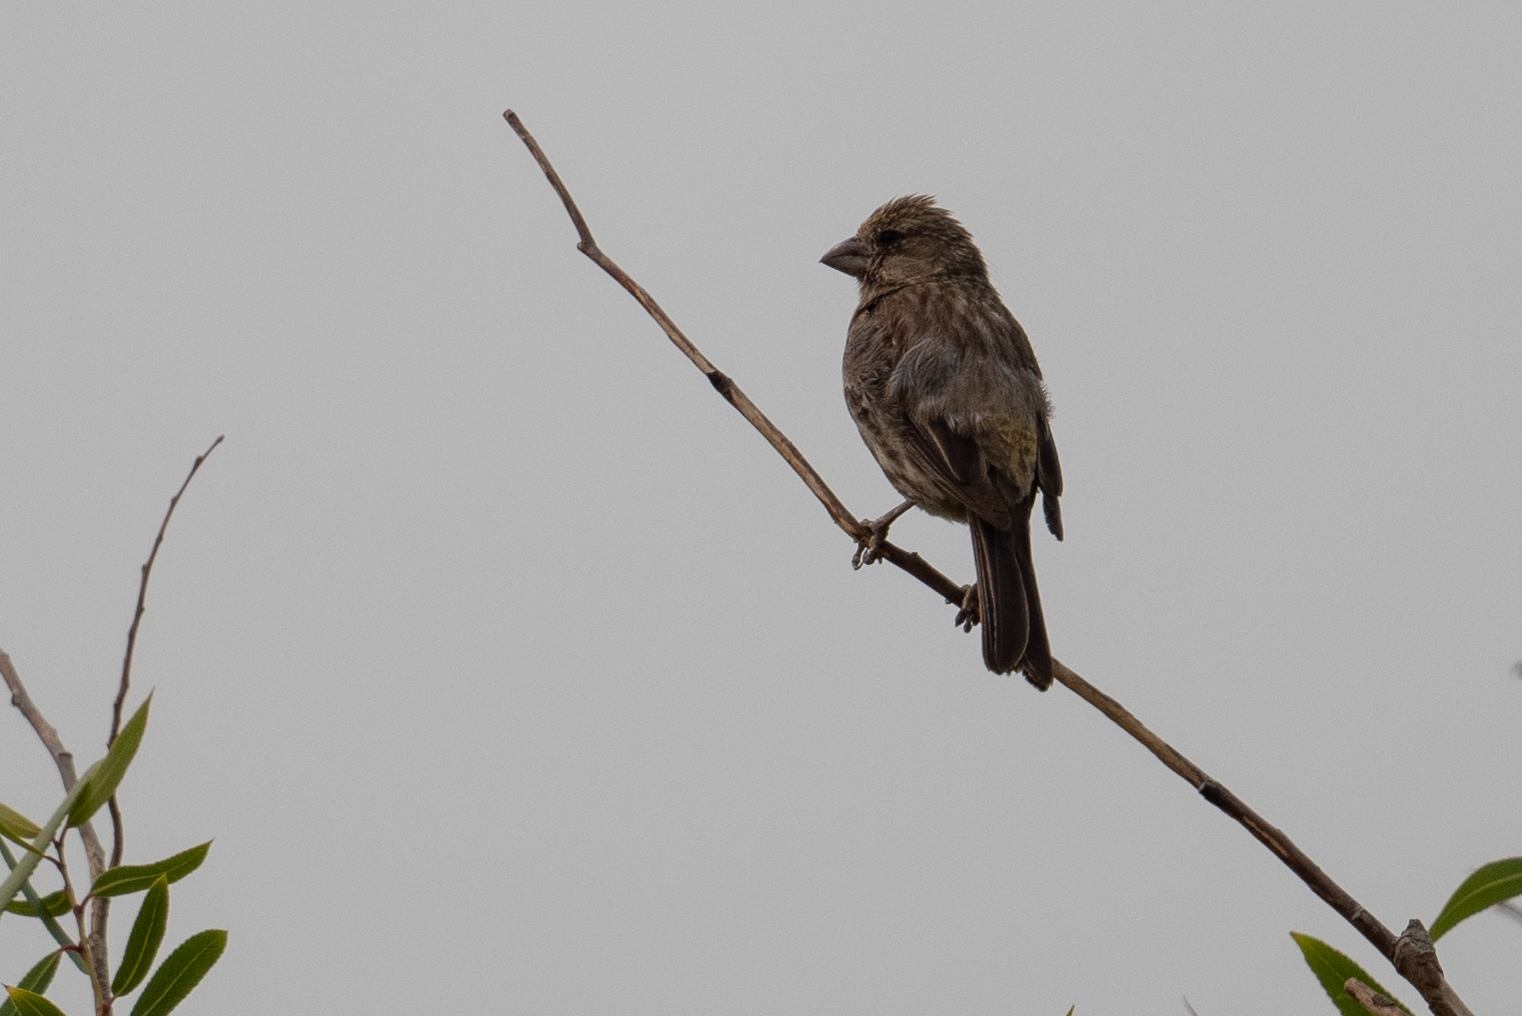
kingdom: Animalia
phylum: Chordata
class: Aves
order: Passeriformes
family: Fringillidae
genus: Haemorhous
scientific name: Haemorhous mexicanus
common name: House finch
